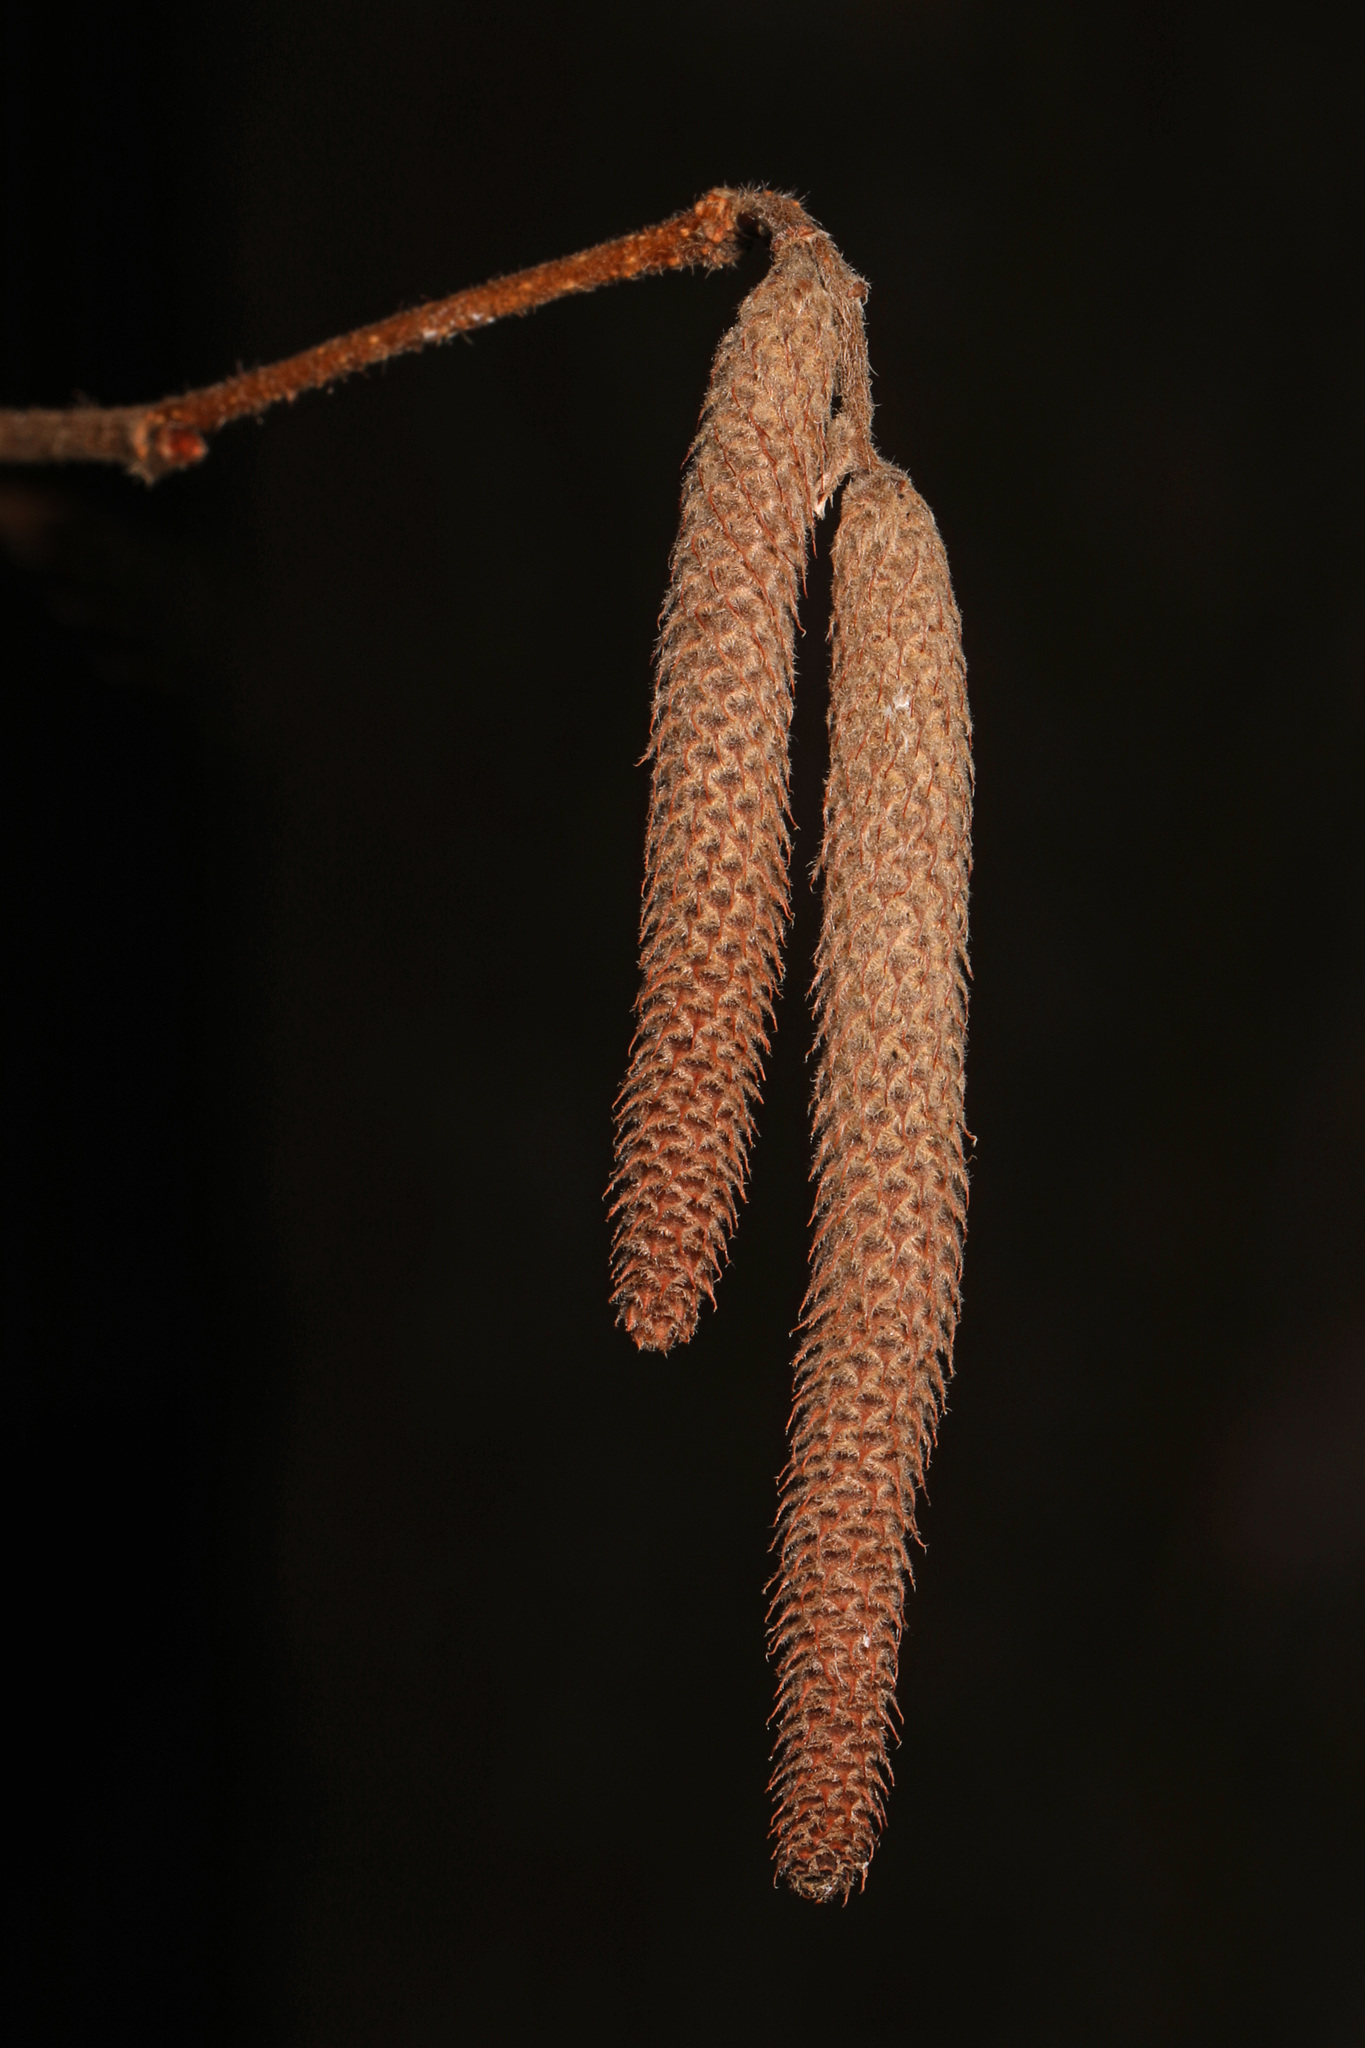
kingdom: Plantae
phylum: Tracheophyta
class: Magnoliopsida
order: Fagales
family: Betulaceae
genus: Corylus
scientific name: Corylus americana
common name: American hazel
